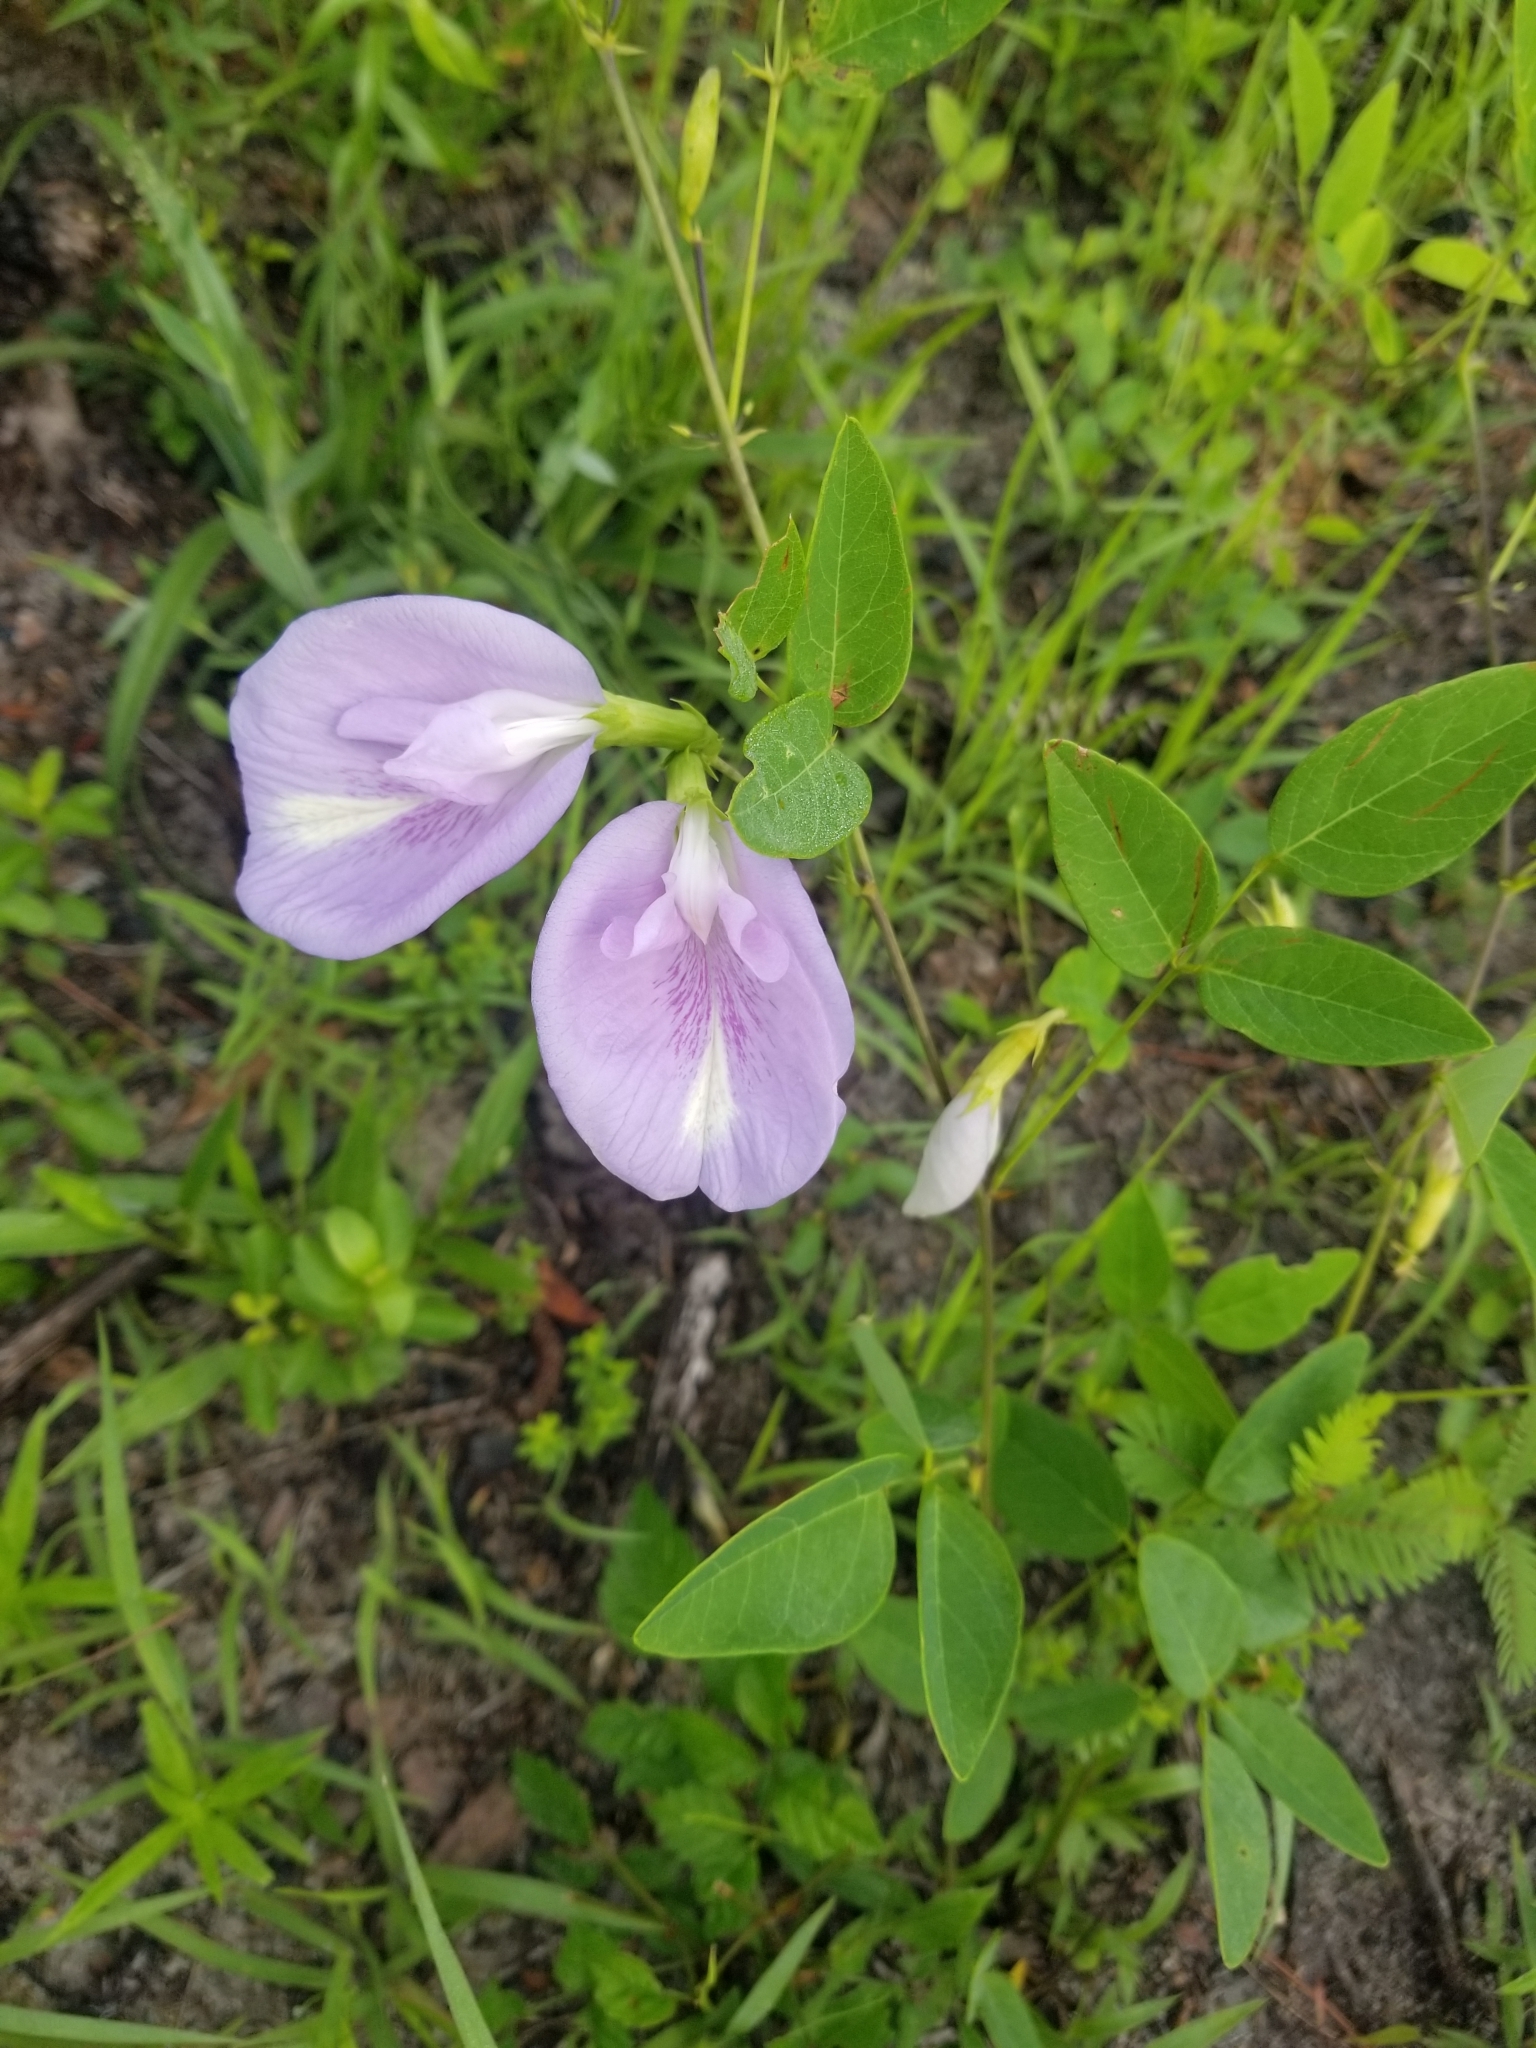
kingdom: Plantae
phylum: Tracheophyta
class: Magnoliopsida
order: Fabales
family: Fabaceae
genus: Clitoria
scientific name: Clitoria mariana
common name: Butterfly-pea
